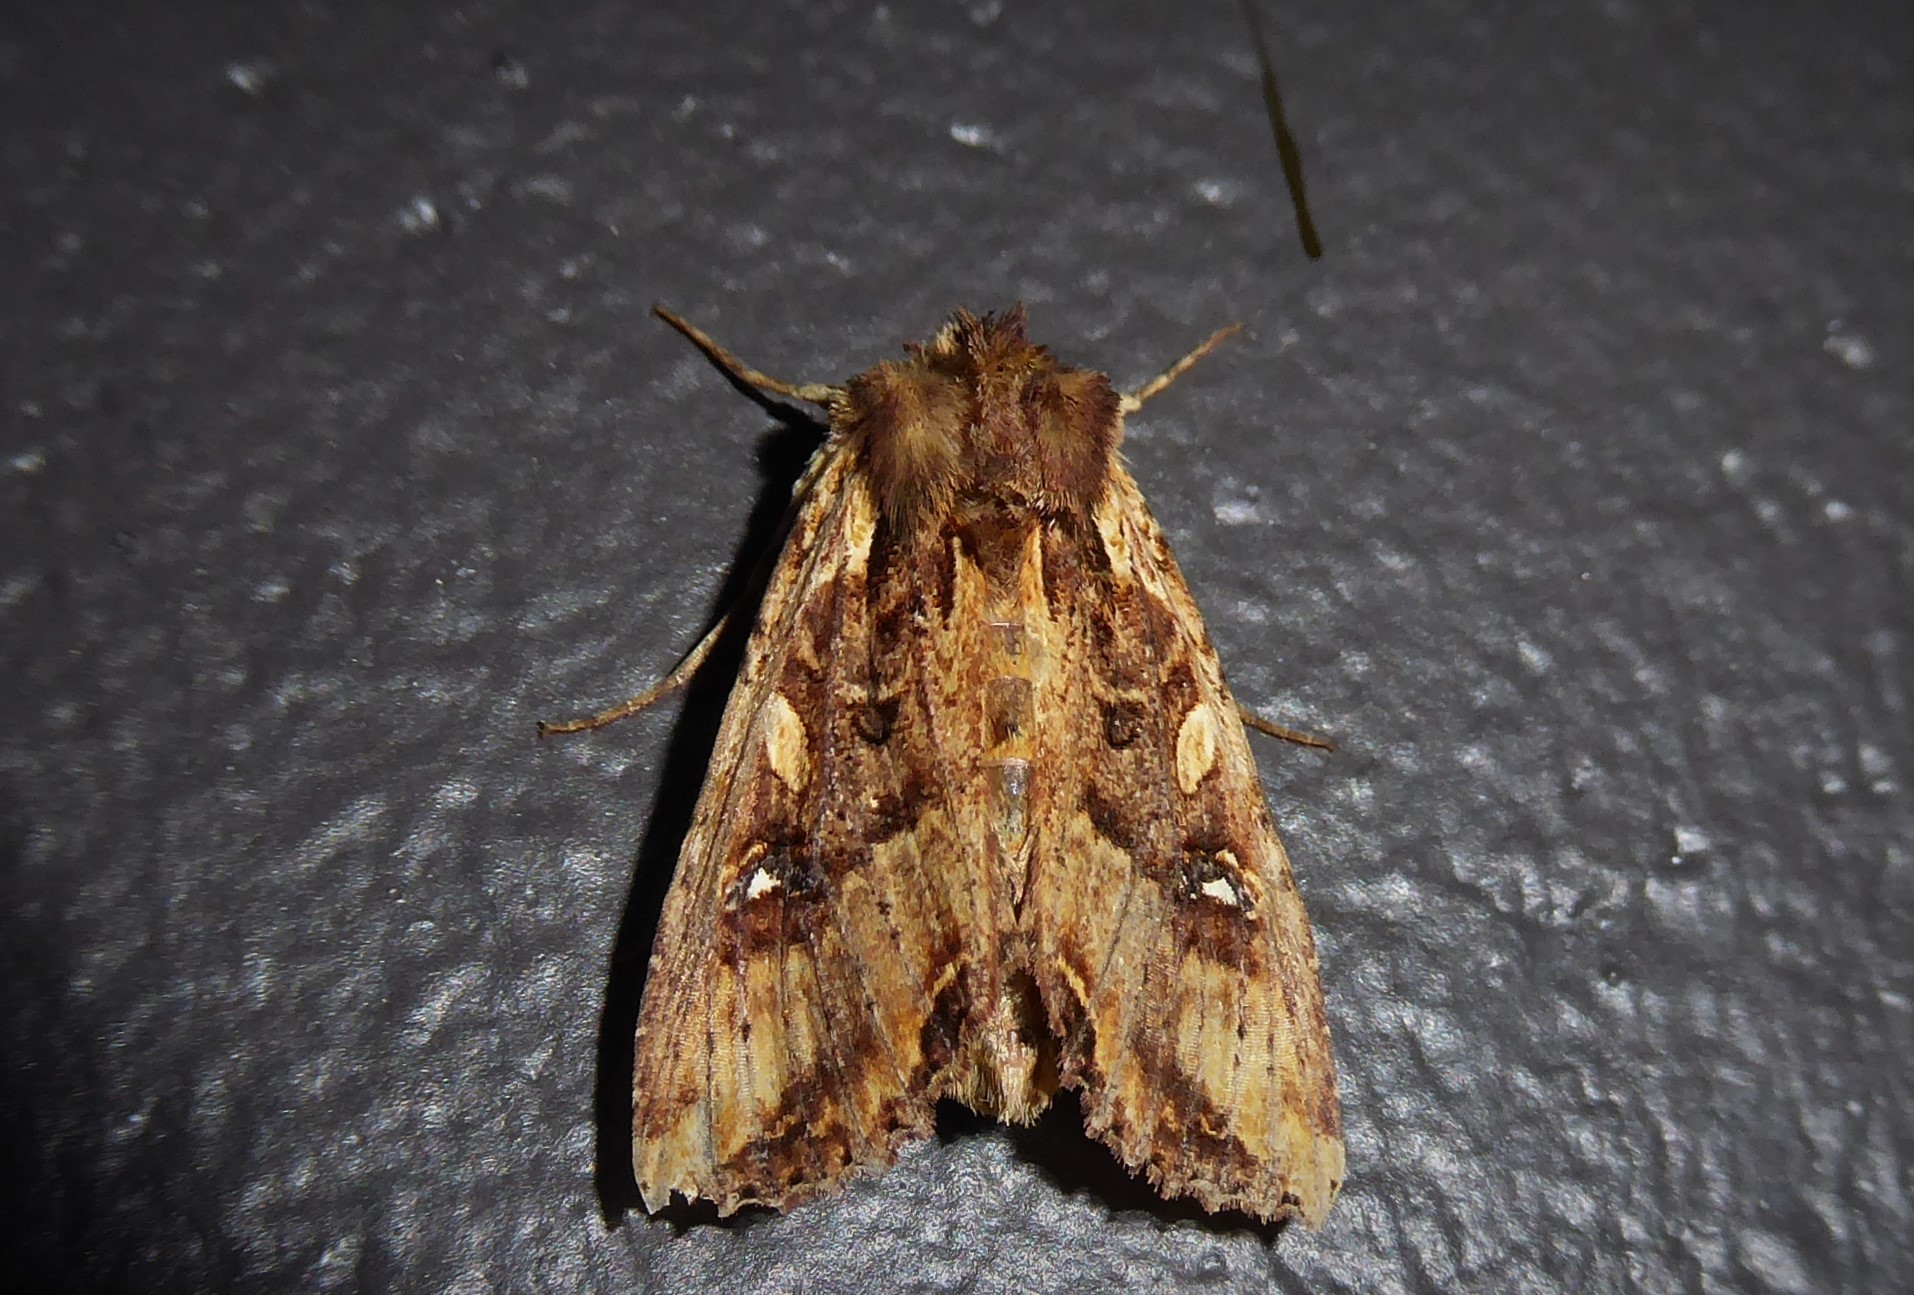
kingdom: Animalia
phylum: Arthropoda
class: Insecta
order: Lepidoptera
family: Noctuidae
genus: Meterana
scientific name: Meterana stipata
